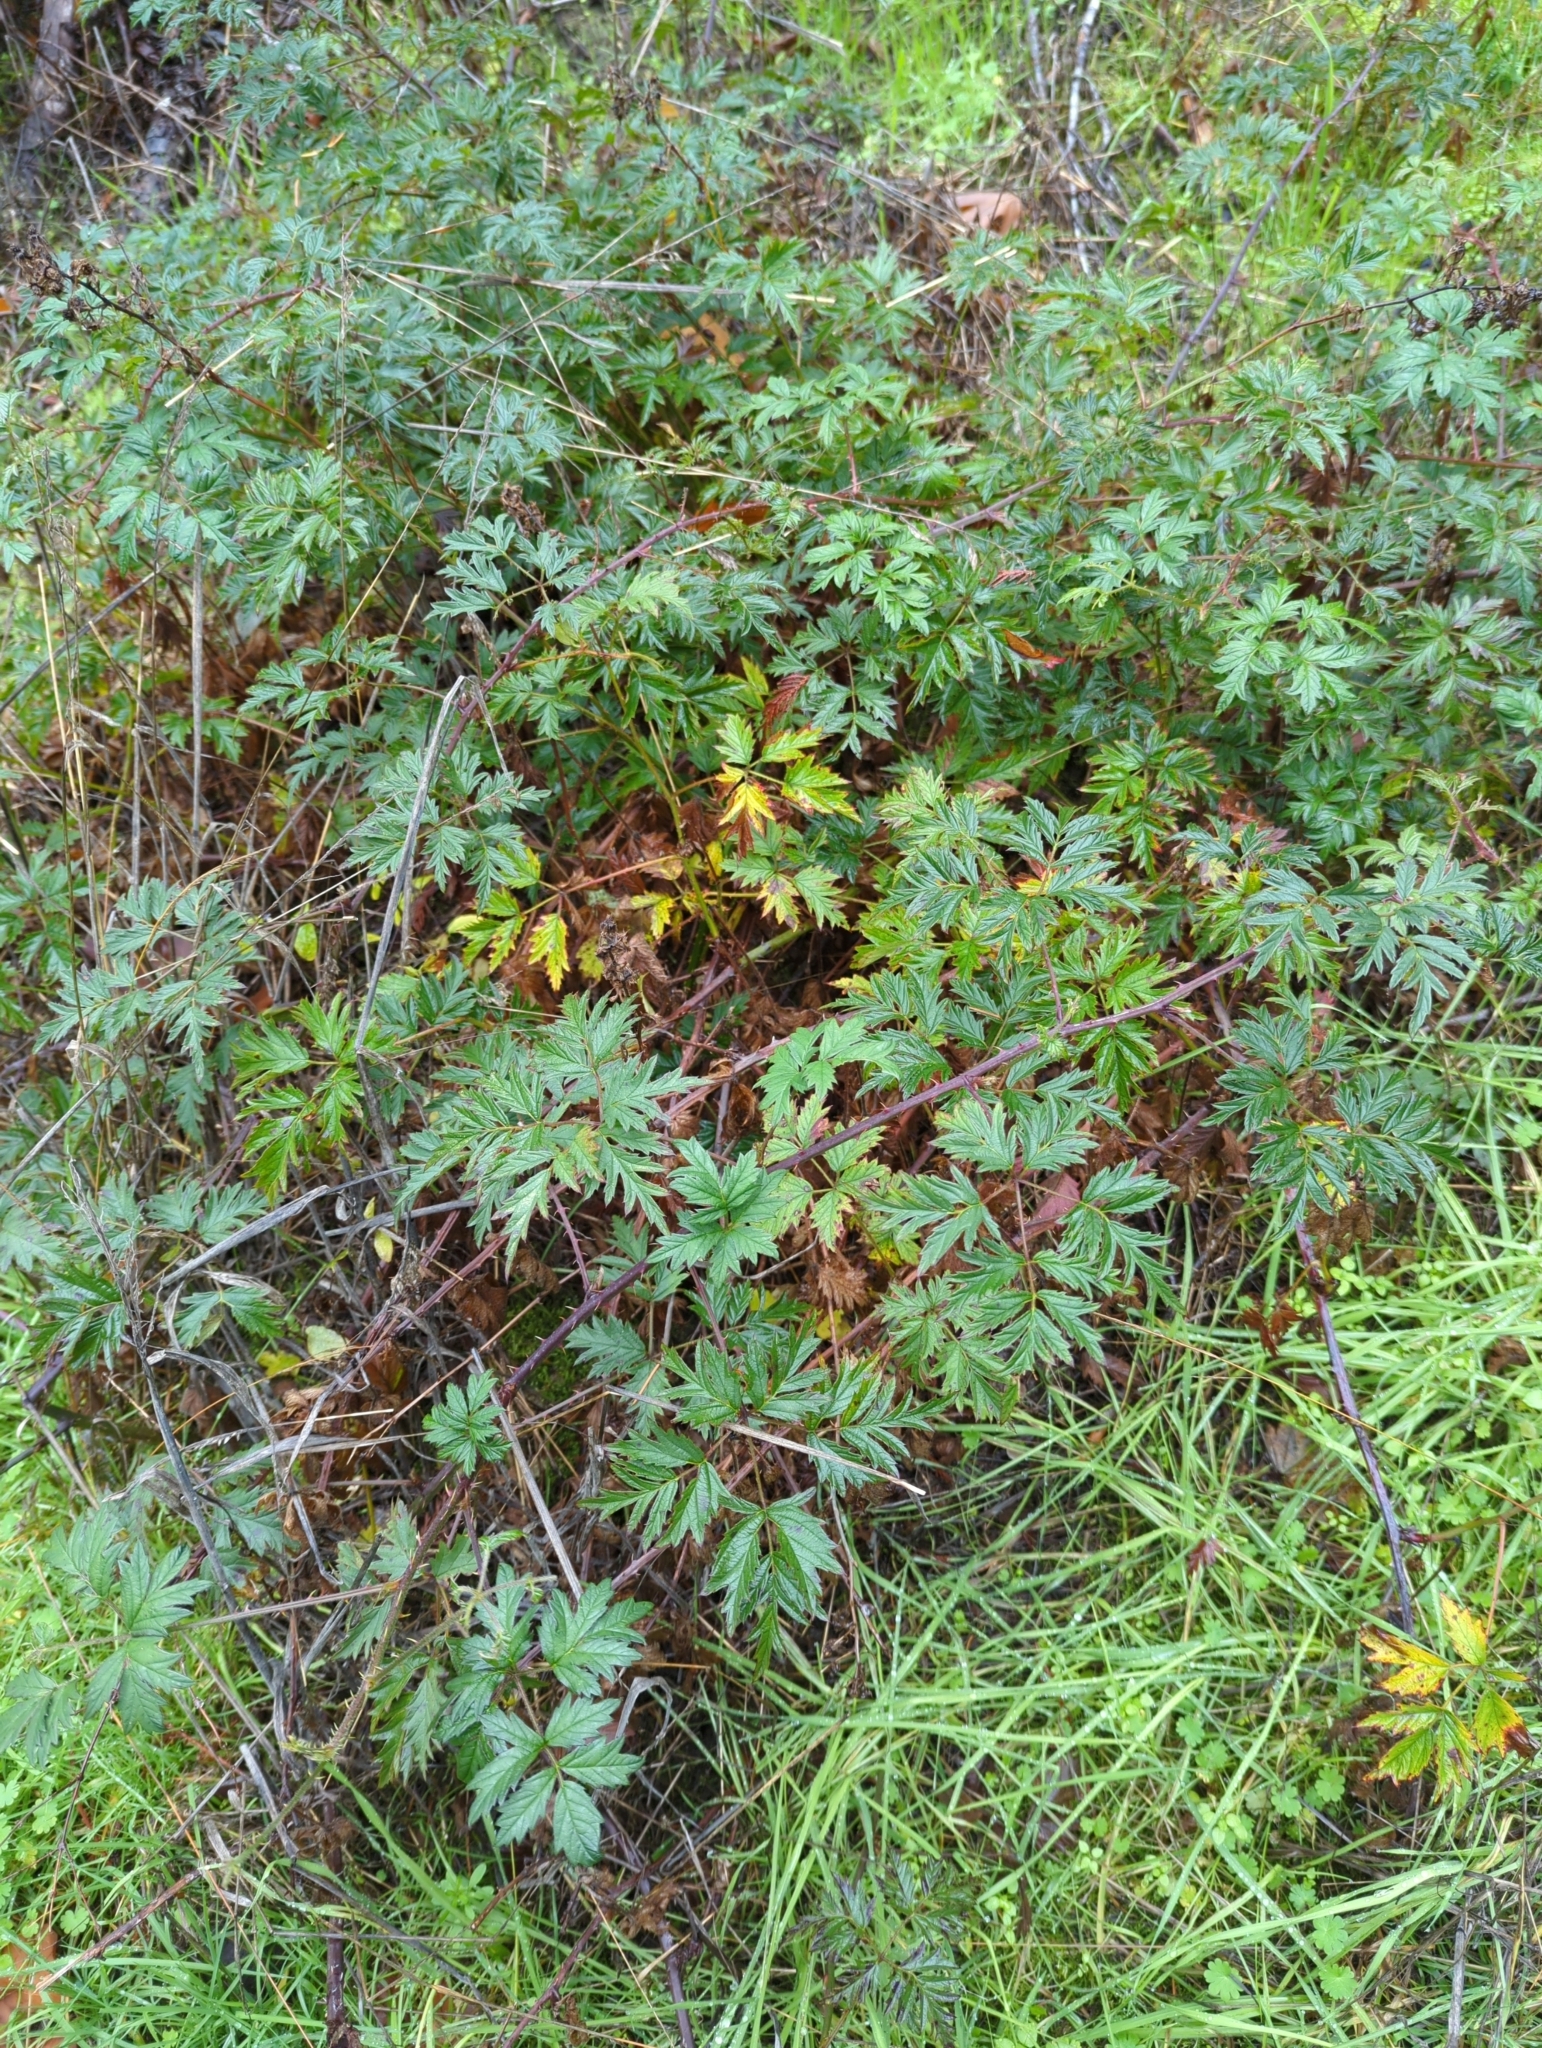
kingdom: Plantae
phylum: Tracheophyta
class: Magnoliopsida
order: Rosales
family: Rosaceae
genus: Rubus
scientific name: Rubus laciniatus
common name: Evergreen blackberry
